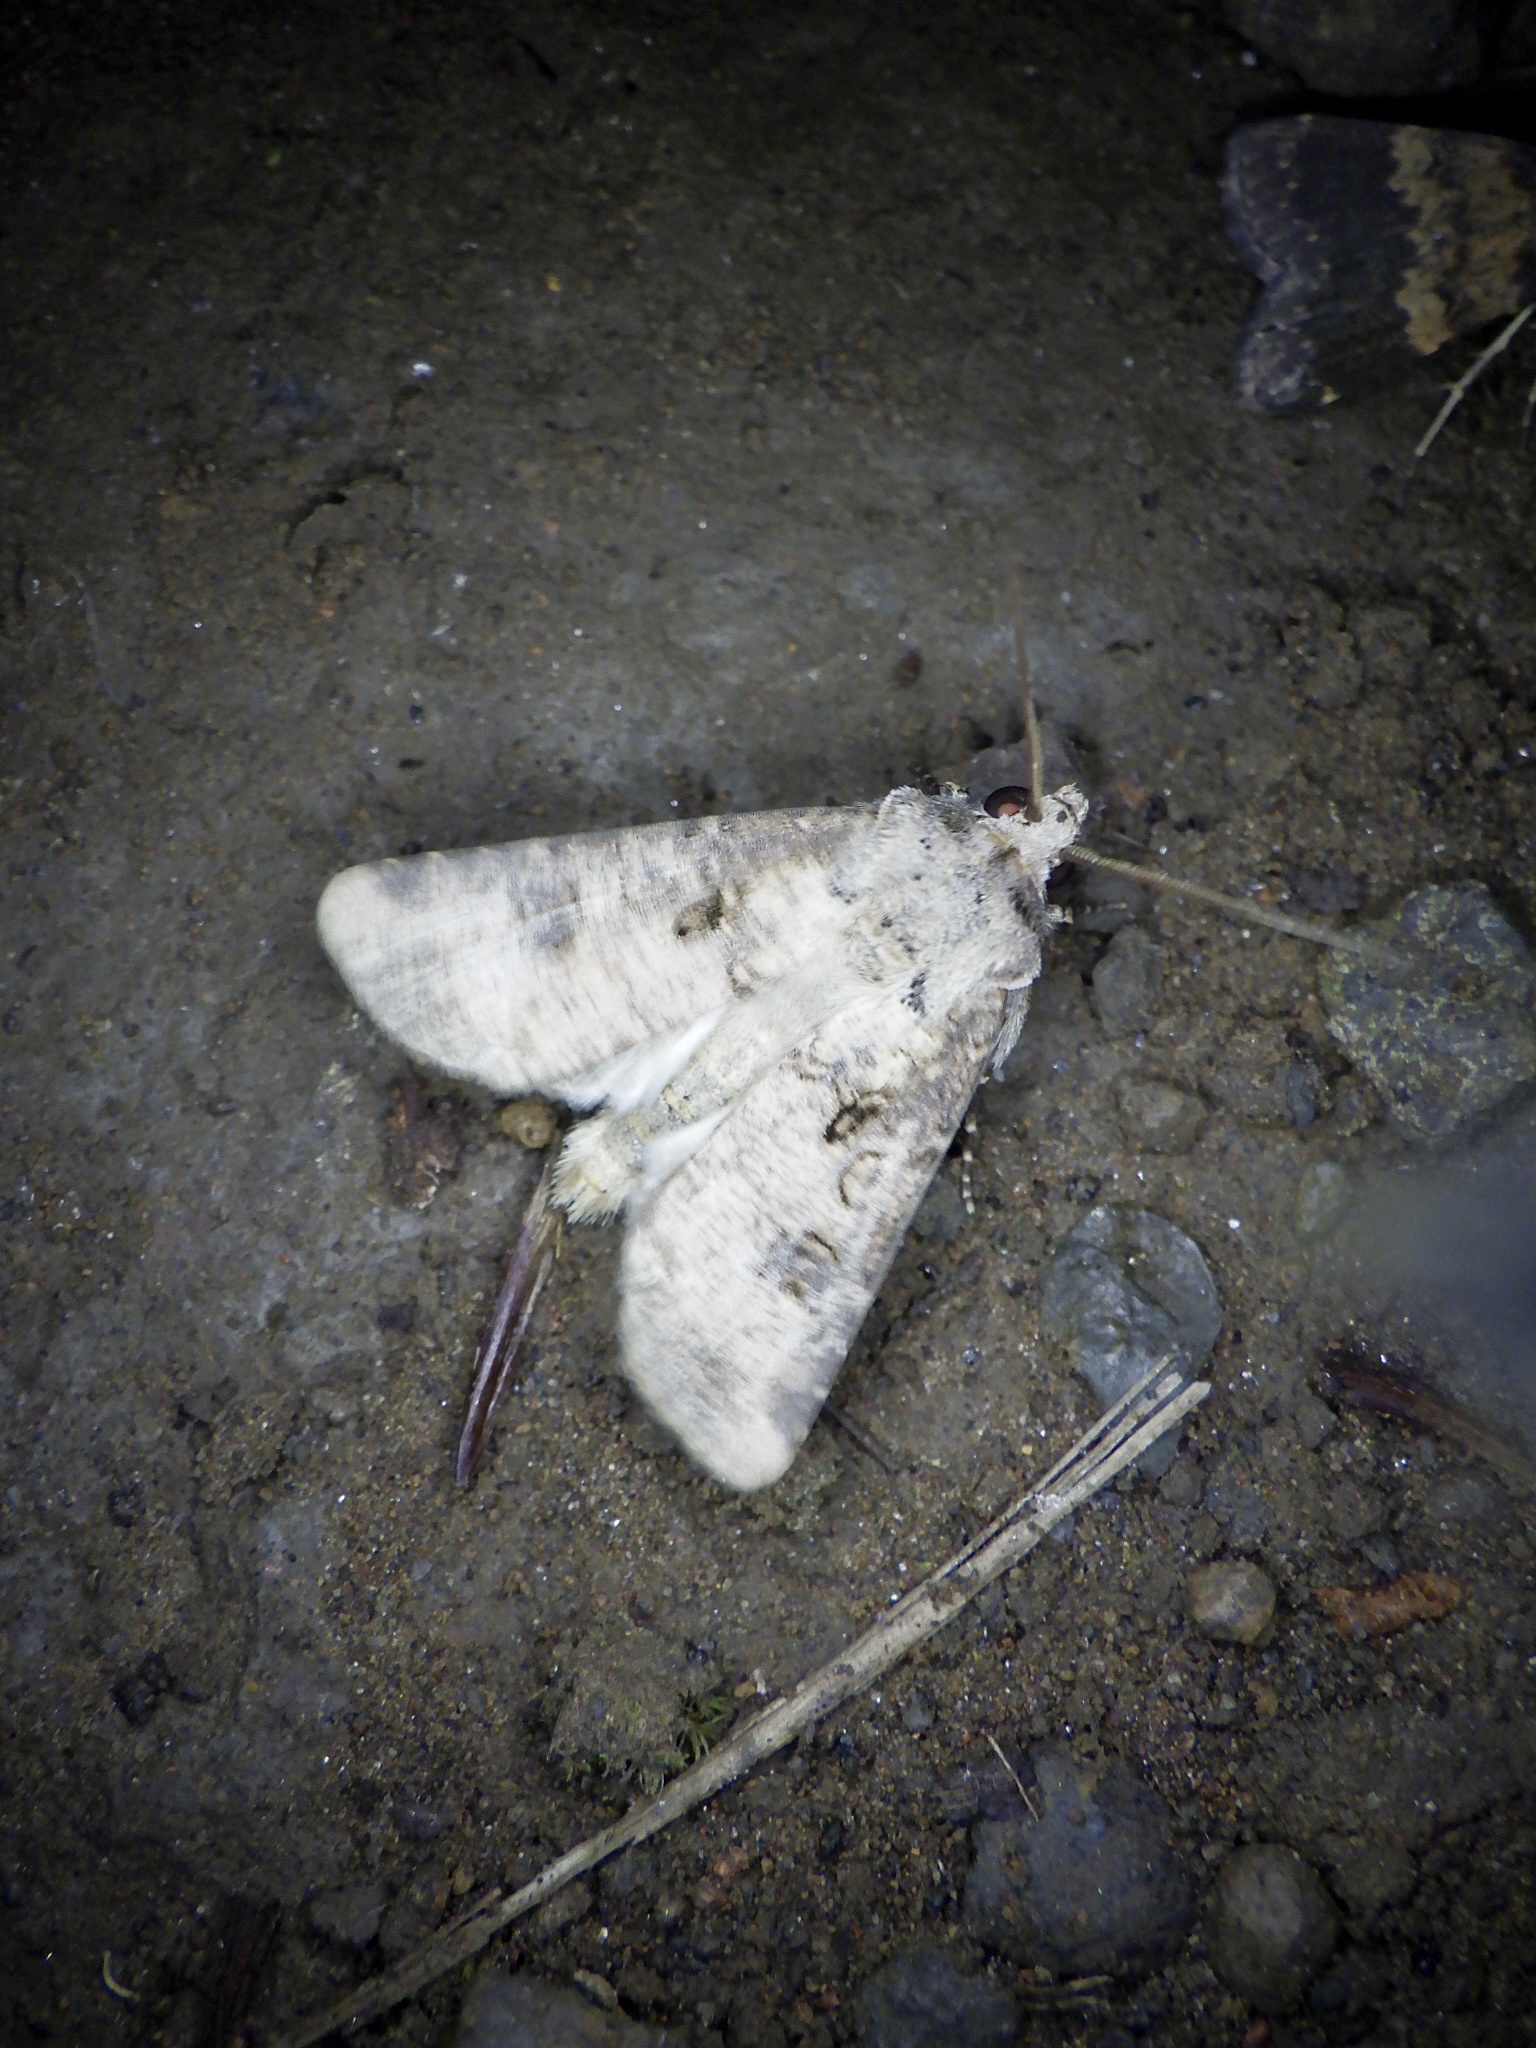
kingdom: Animalia
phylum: Arthropoda
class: Insecta
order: Lepidoptera
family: Noctuidae
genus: Agrotis
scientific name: Agrotis segetum
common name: Turnip moth
